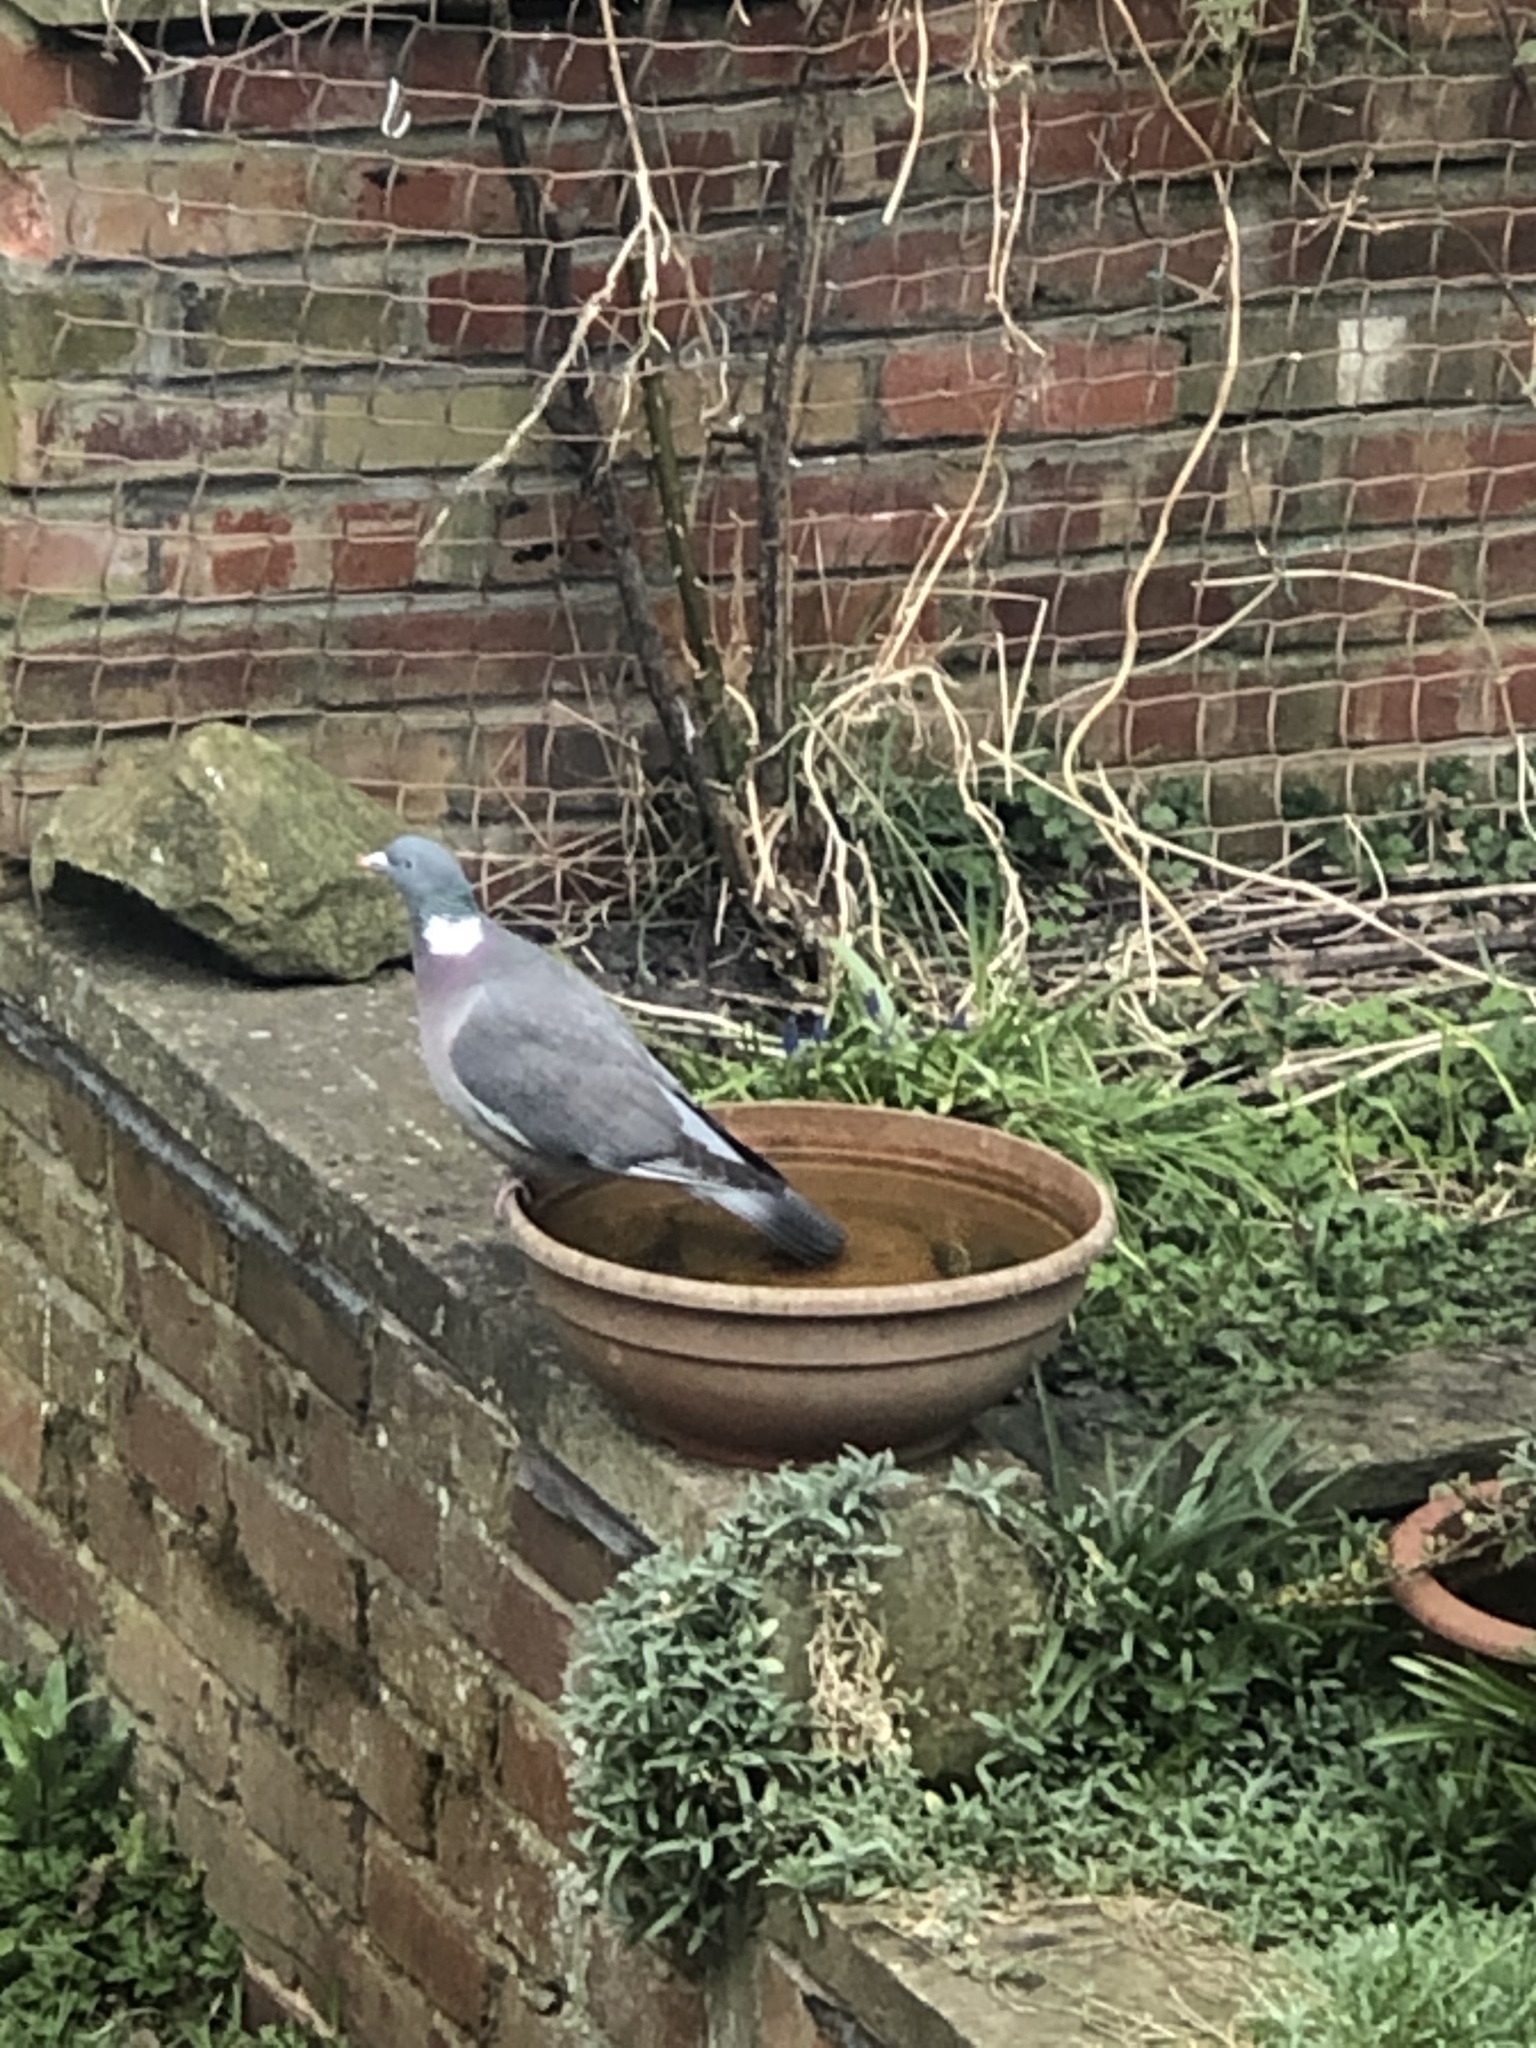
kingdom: Animalia
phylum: Chordata
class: Aves
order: Columbiformes
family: Columbidae
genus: Columba
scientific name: Columba palumbus
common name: Common wood pigeon
